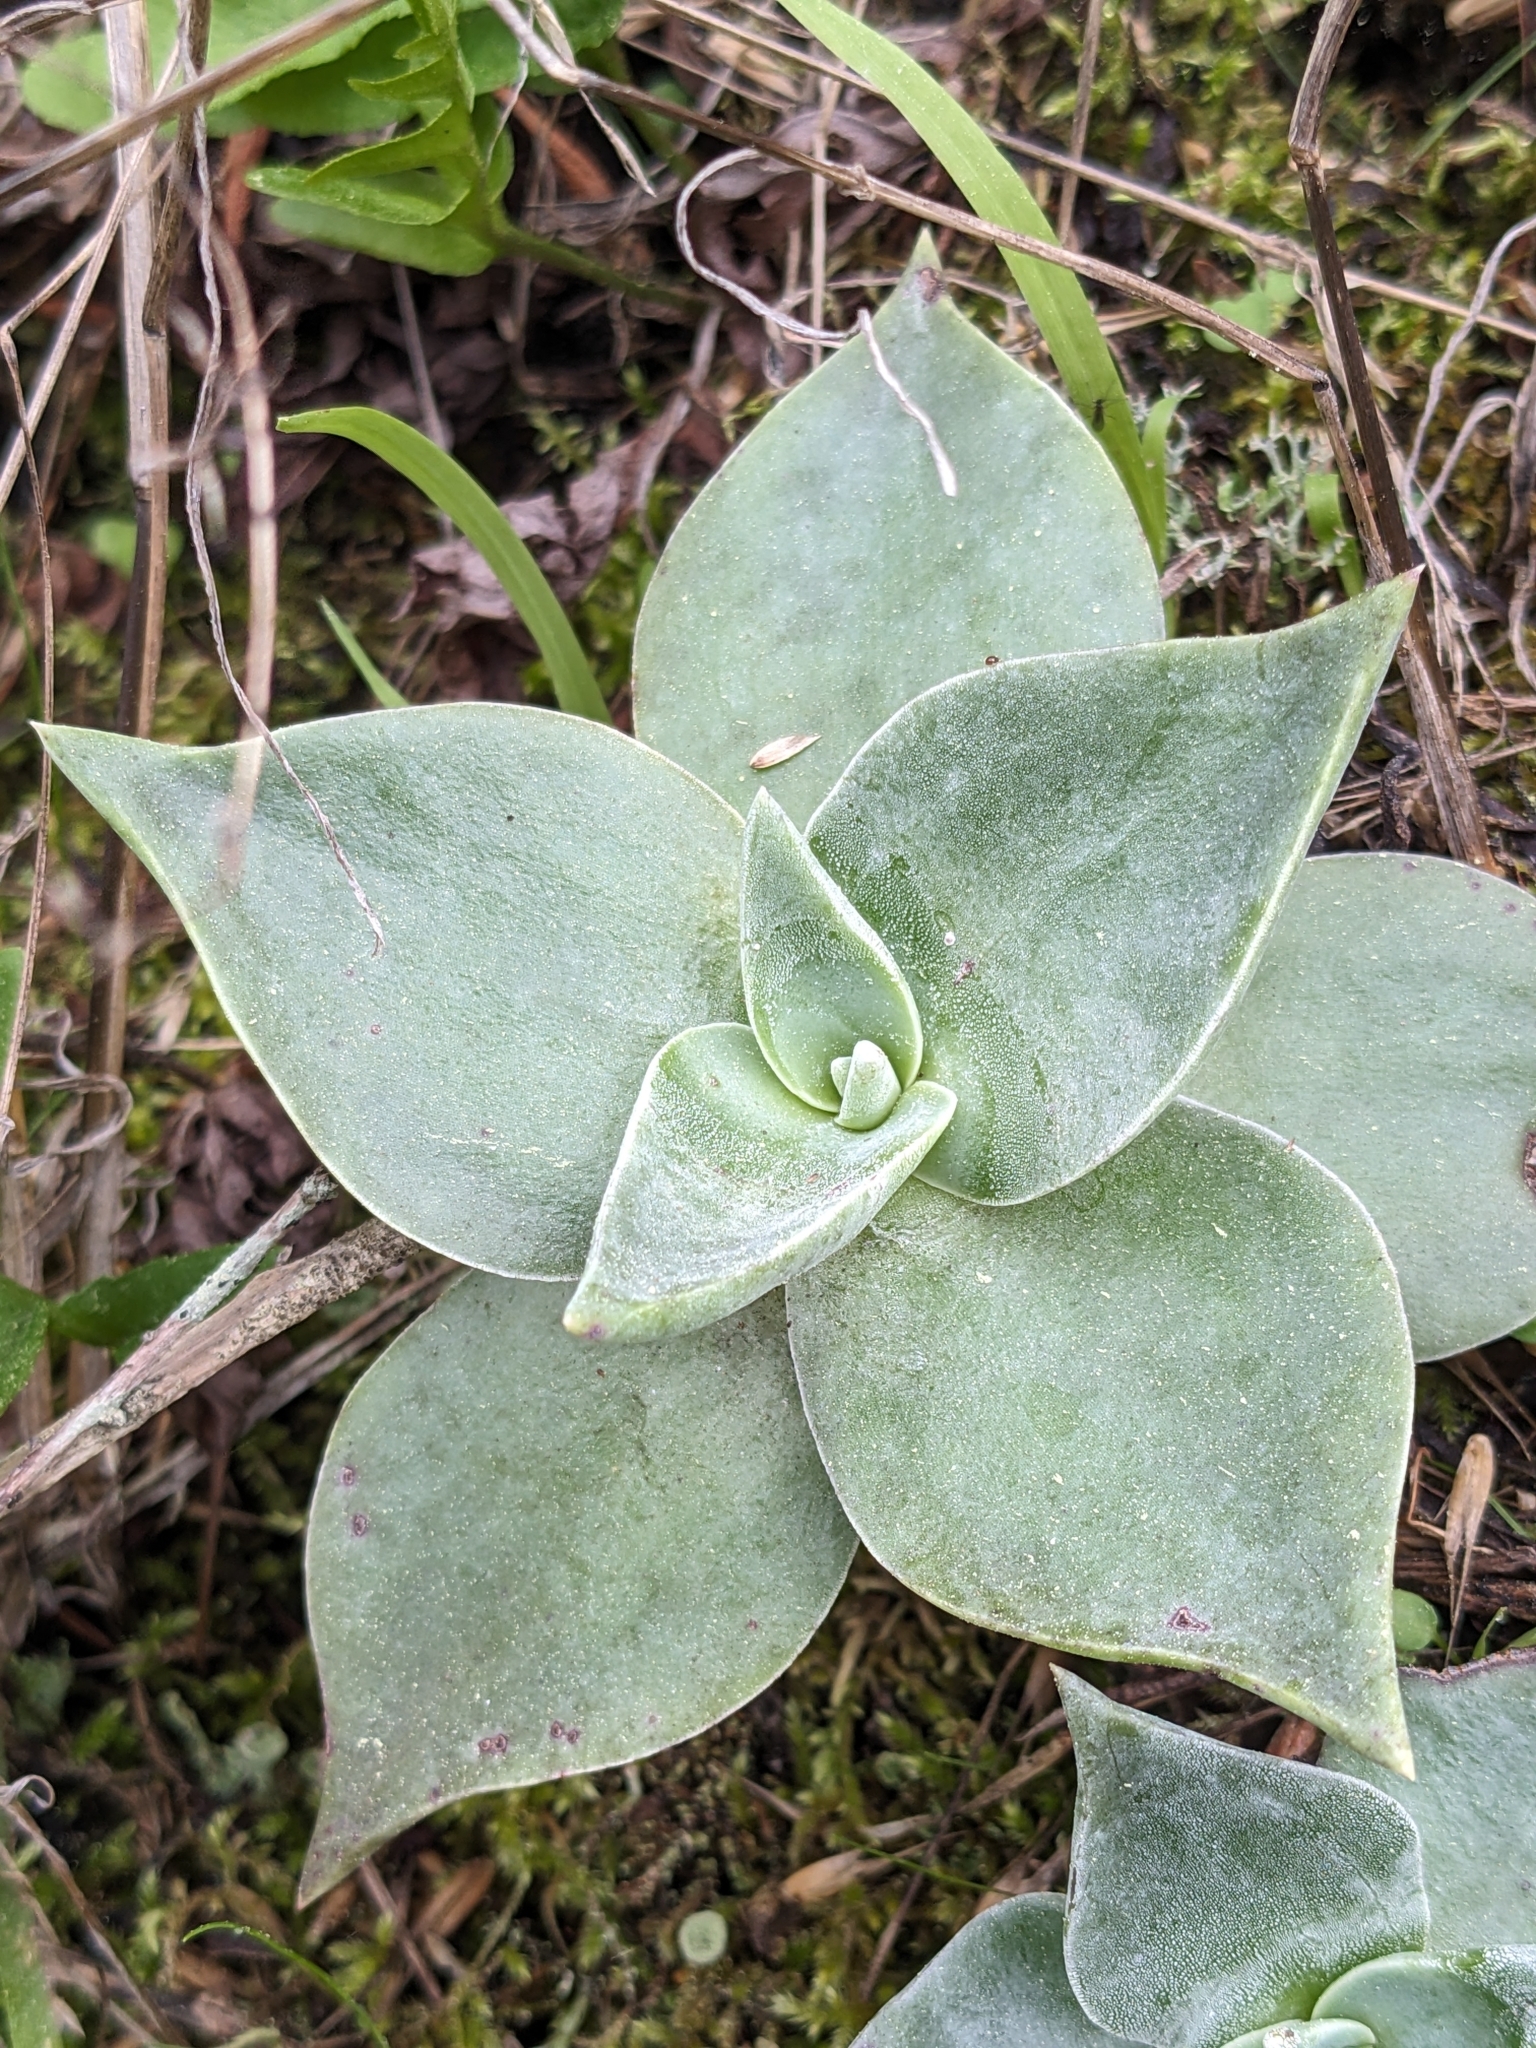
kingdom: Plantae
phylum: Tracheophyta
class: Magnoliopsida
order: Saxifragales
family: Crassulaceae
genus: Dudleya
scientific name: Dudleya pulverulenta
